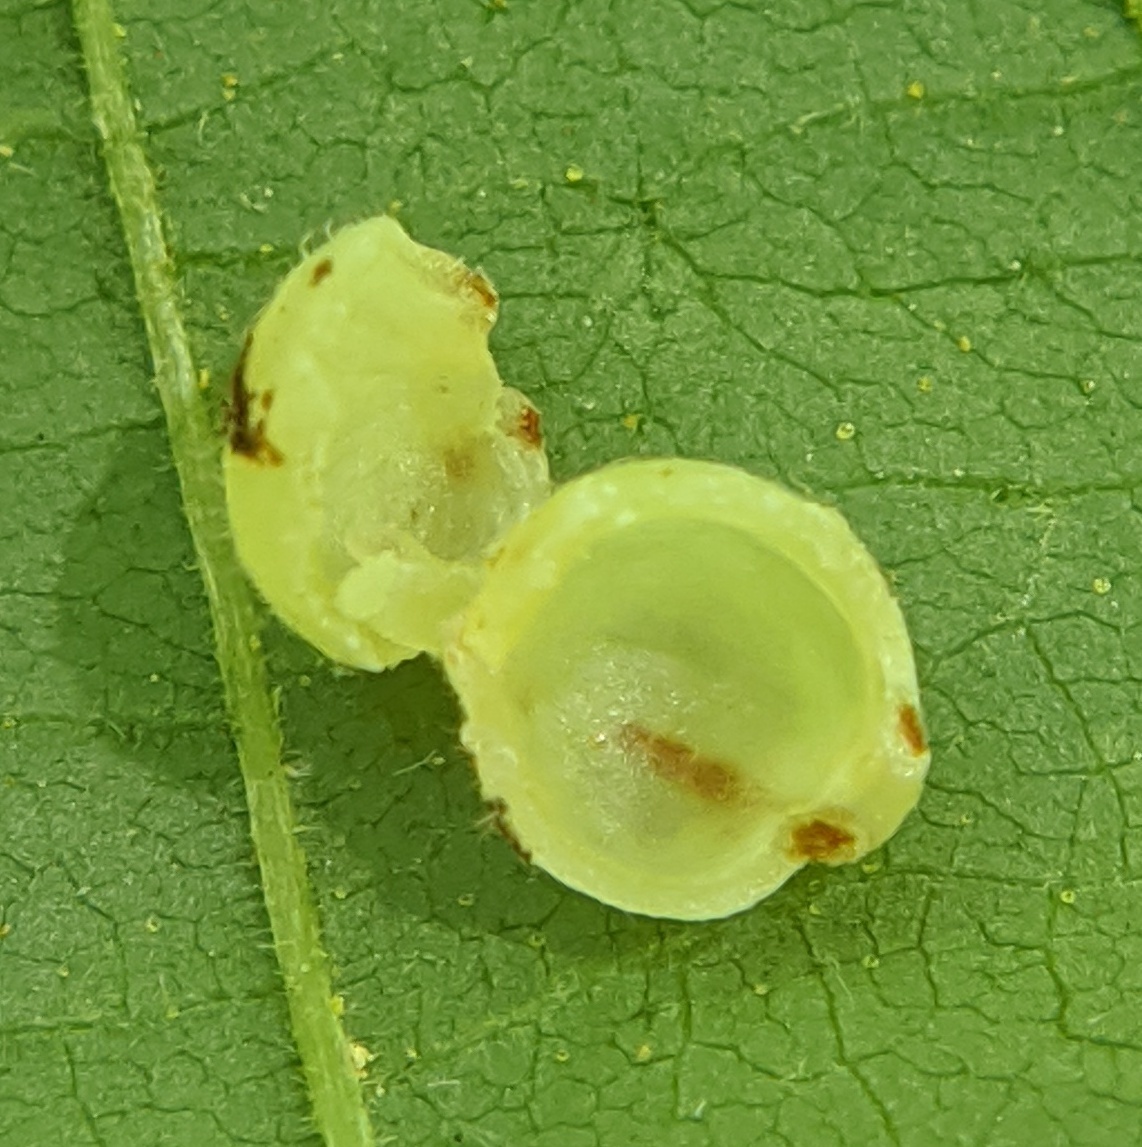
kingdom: Animalia
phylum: Arthropoda
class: Insecta
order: Diptera
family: Cecidomyiidae
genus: Caryomyia
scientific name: Caryomyia cilidolium
